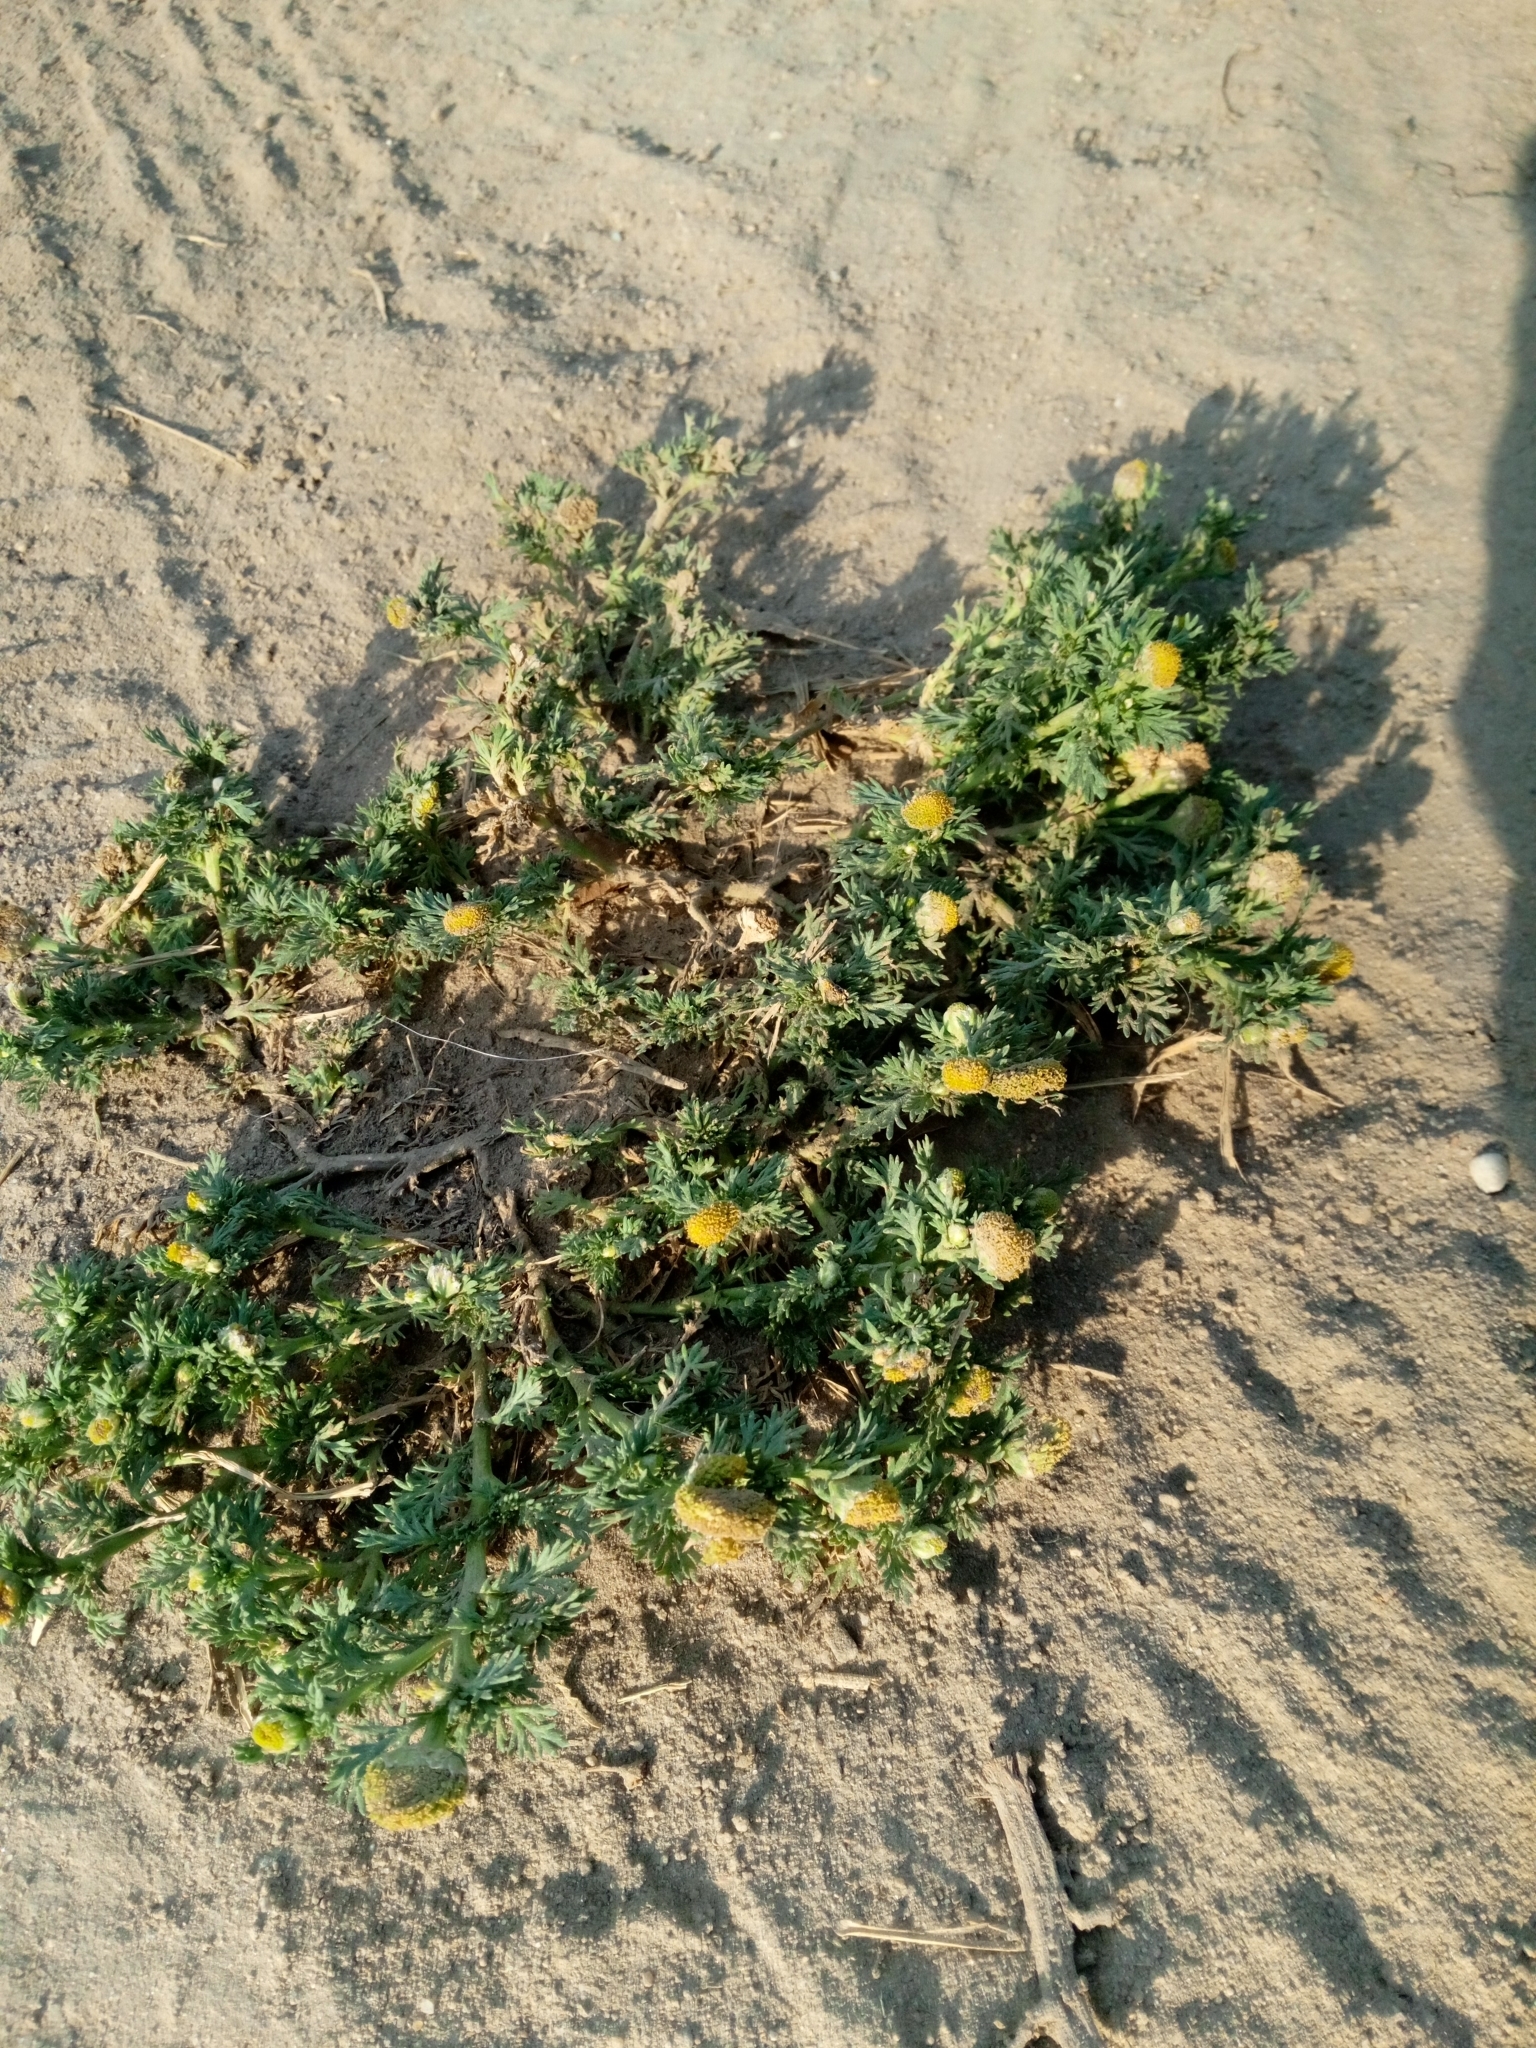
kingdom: Plantae
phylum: Tracheophyta
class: Magnoliopsida
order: Asterales
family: Asteraceae
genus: Matricaria
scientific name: Matricaria discoidea
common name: Disc mayweed
